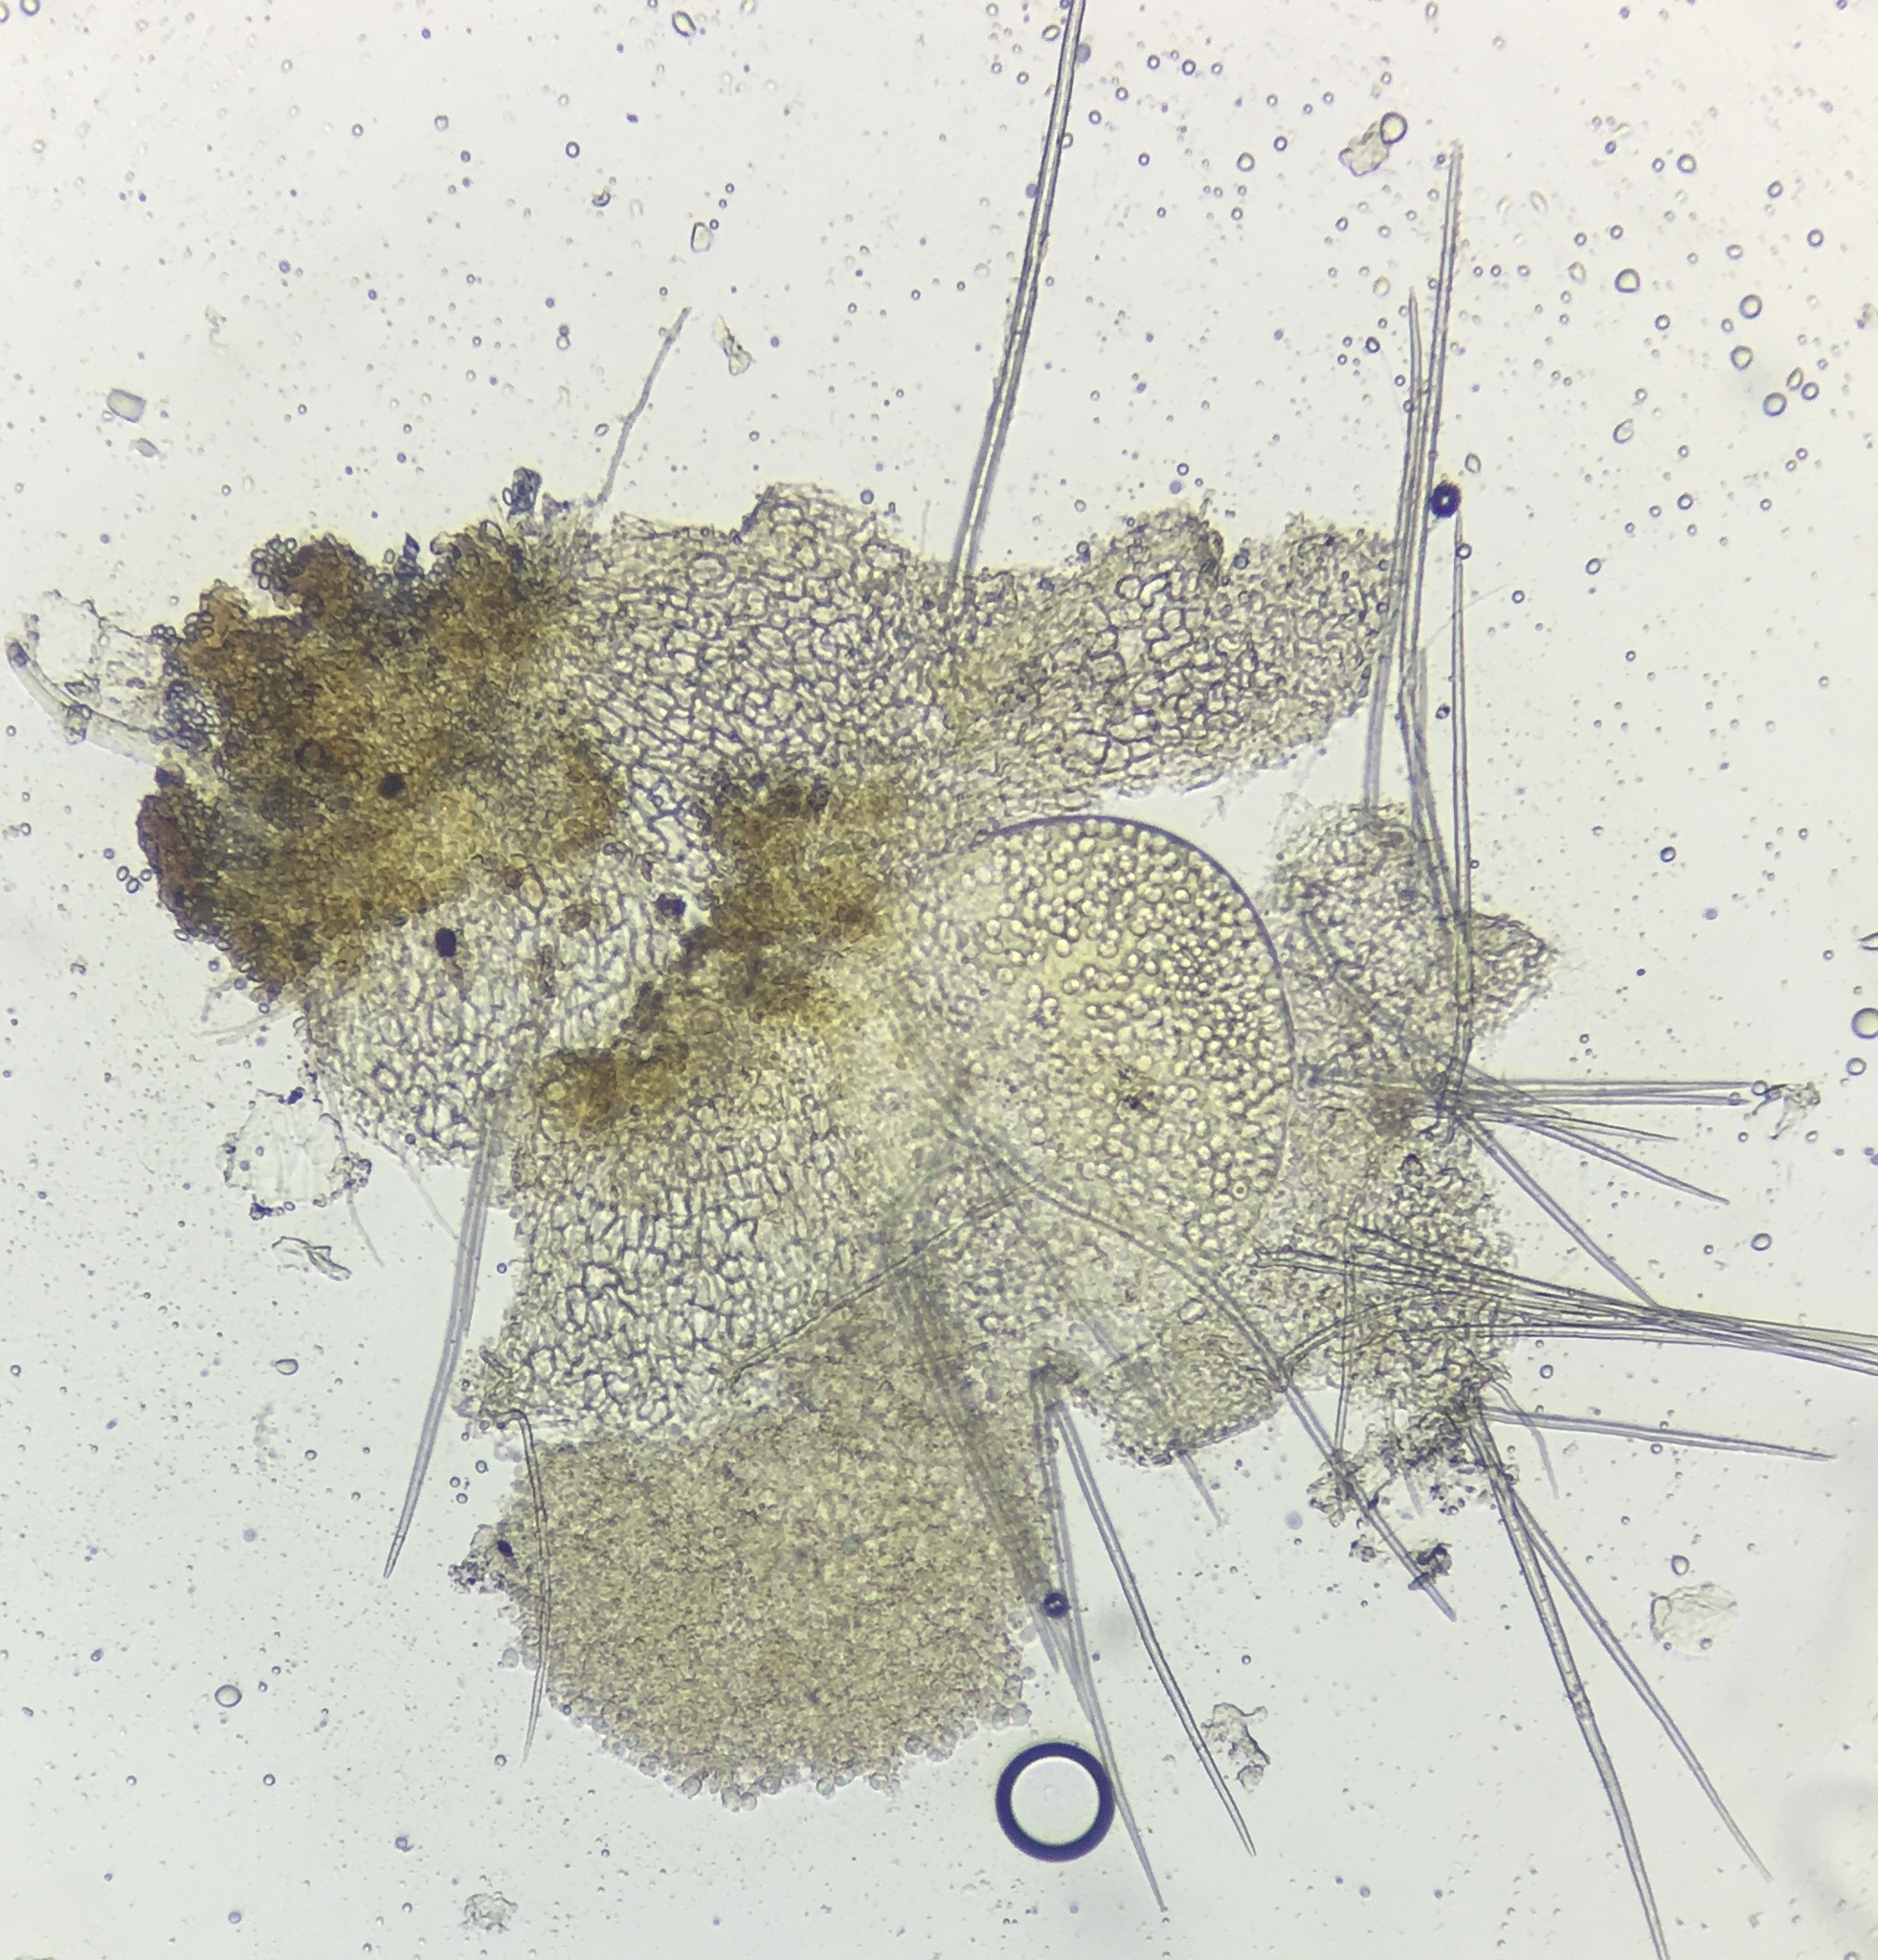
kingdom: Fungi
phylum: Ascomycota
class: Pezizomycetes
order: Pezizales
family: Ascodesmidaceae
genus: Trichobolus
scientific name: Trichobolus zukalii
